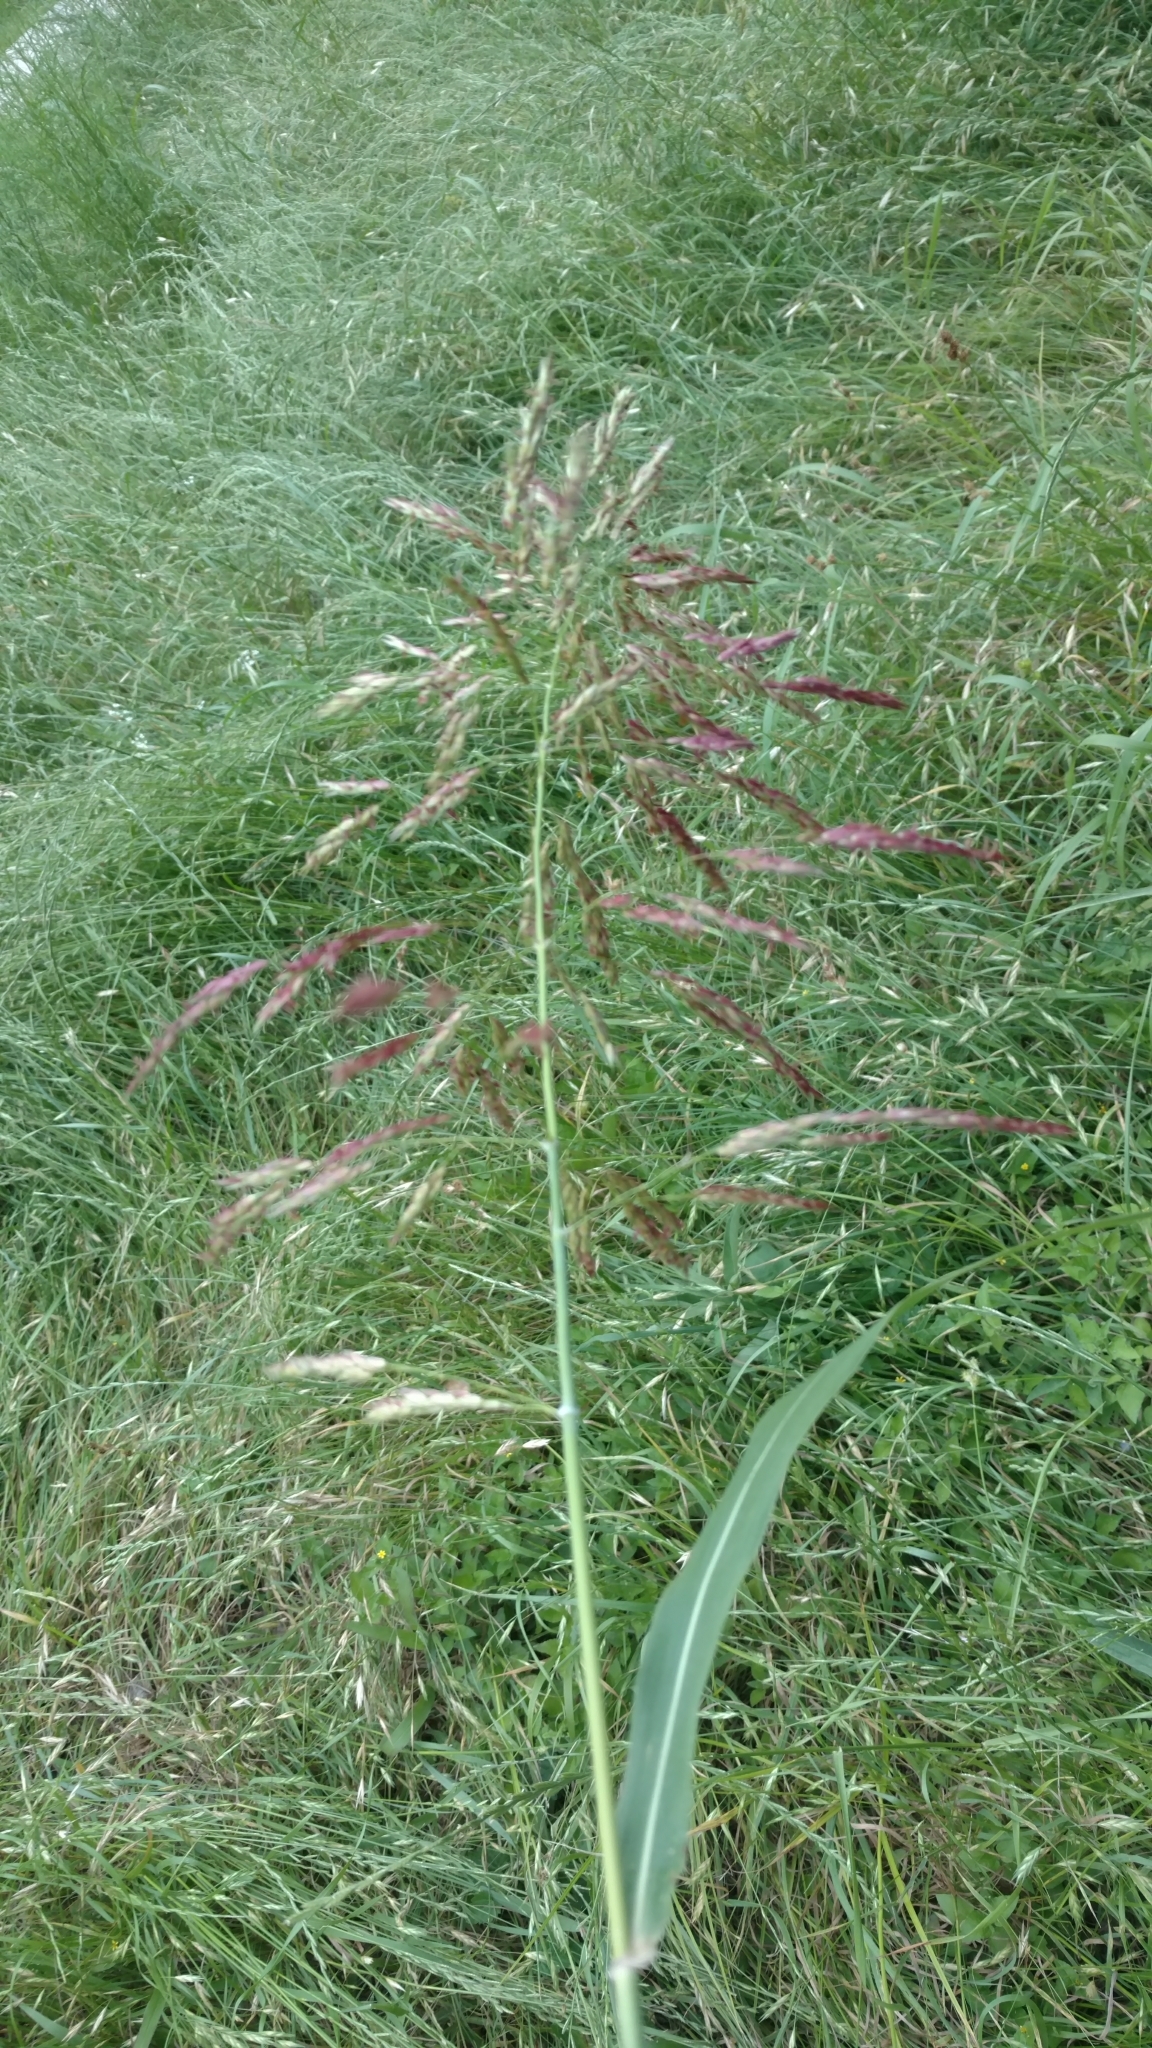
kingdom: Plantae
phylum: Tracheophyta
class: Liliopsida
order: Poales
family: Poaceae
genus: Sorghum
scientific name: Sorghum halepense
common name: Johnson-grass
